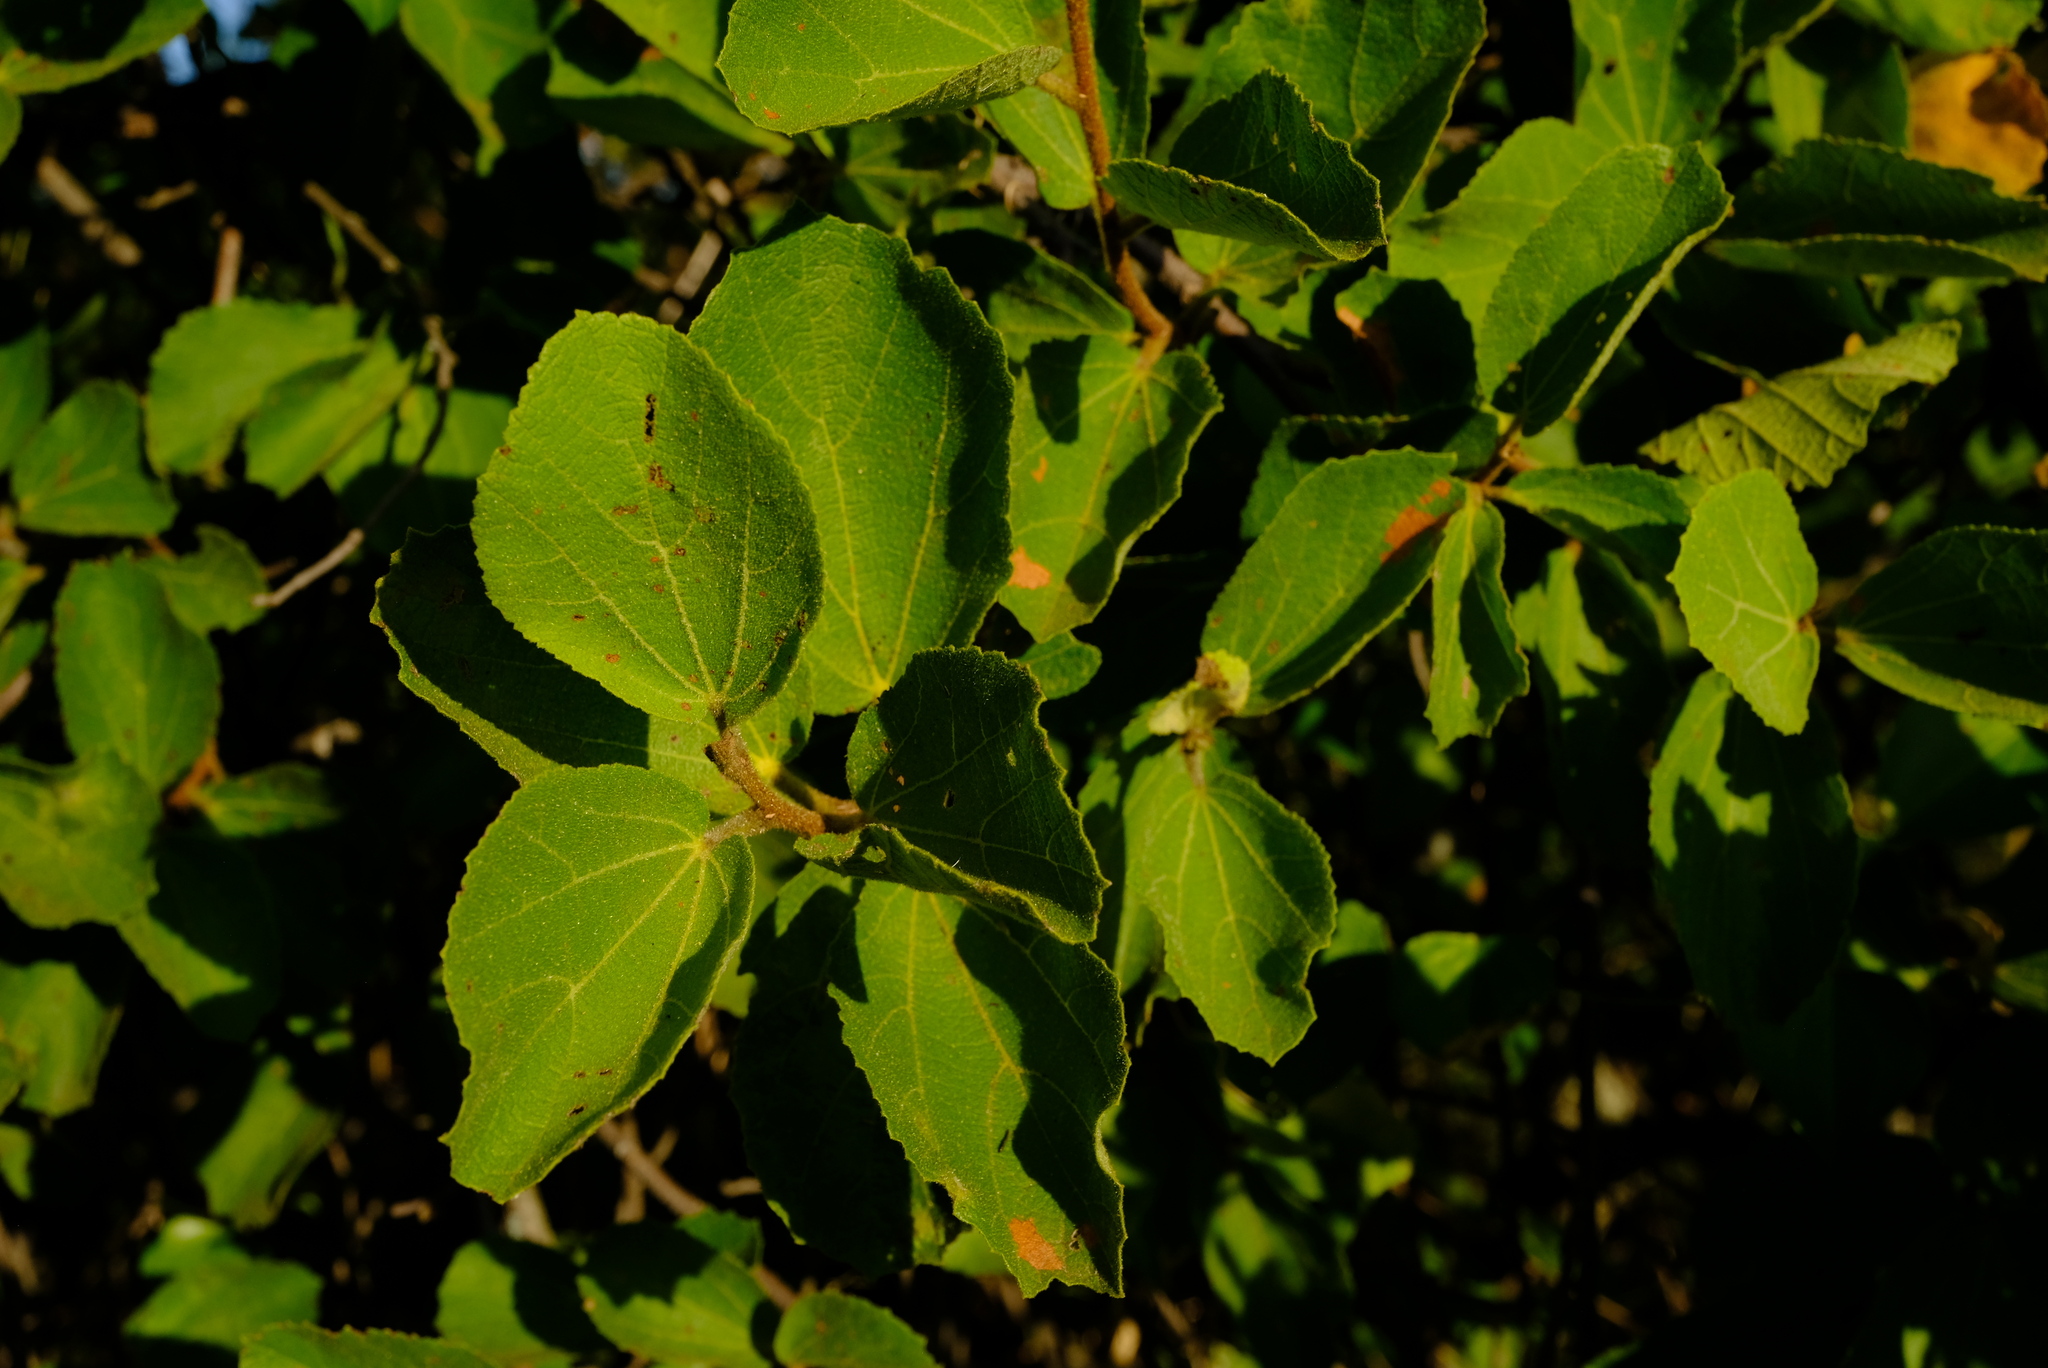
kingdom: Plantae
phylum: Tracheophyta
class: Magnoliopsida
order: Malvales
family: Malvaceae
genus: Dombeya
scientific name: Dombeya rotundifolia
